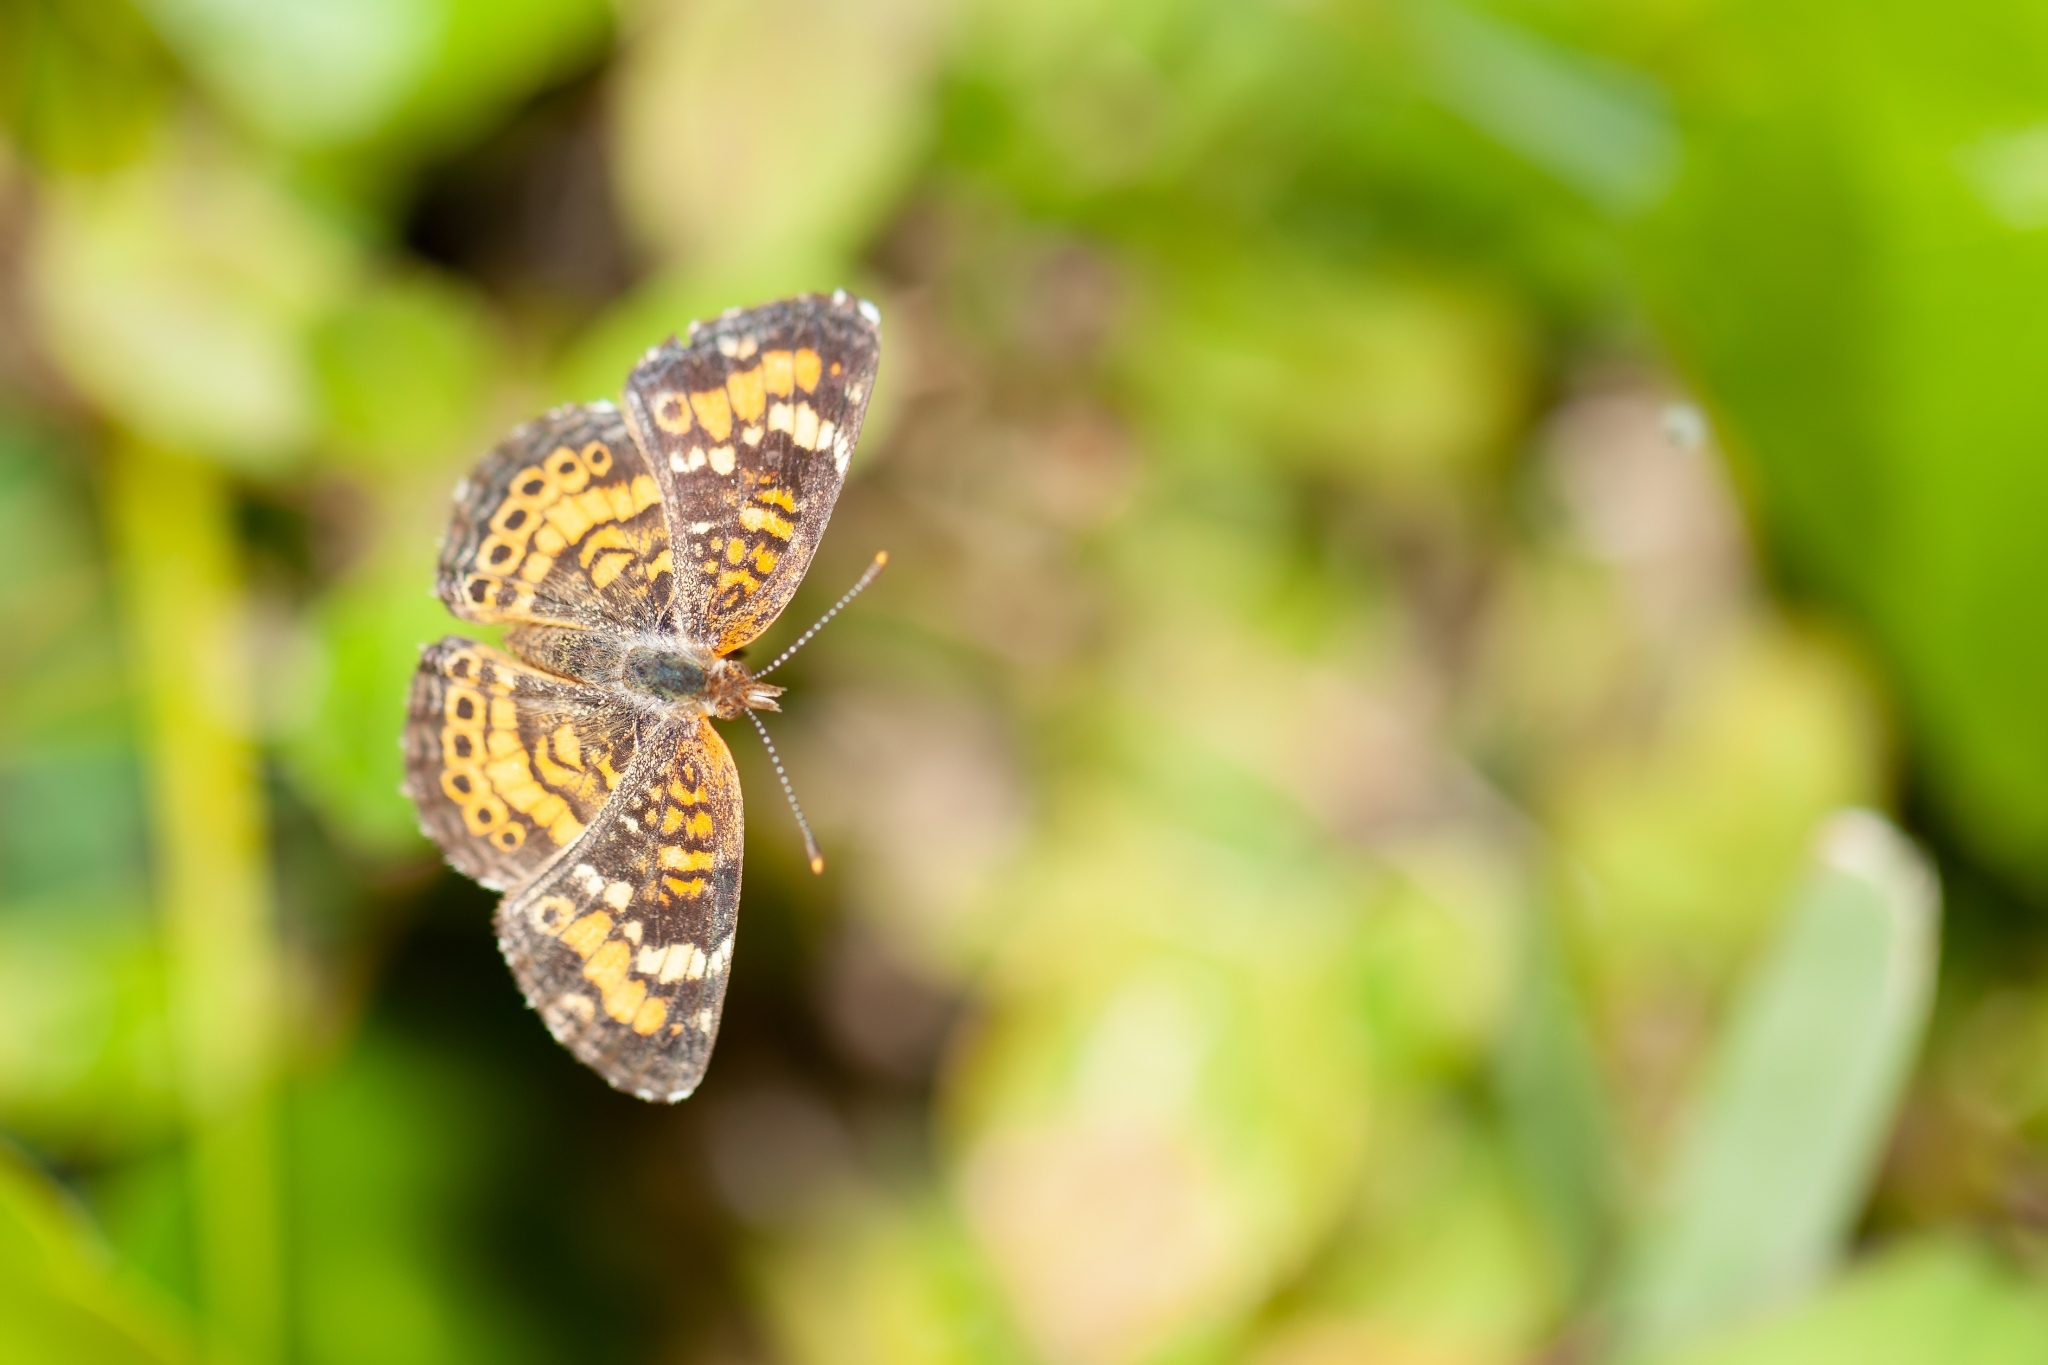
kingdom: Animalia
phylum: Arthropoda
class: Insecta
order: Lepidoptera
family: Nymphalidae
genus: Phyciodes
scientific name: Phyciodes phaon
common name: Phaon crescent
